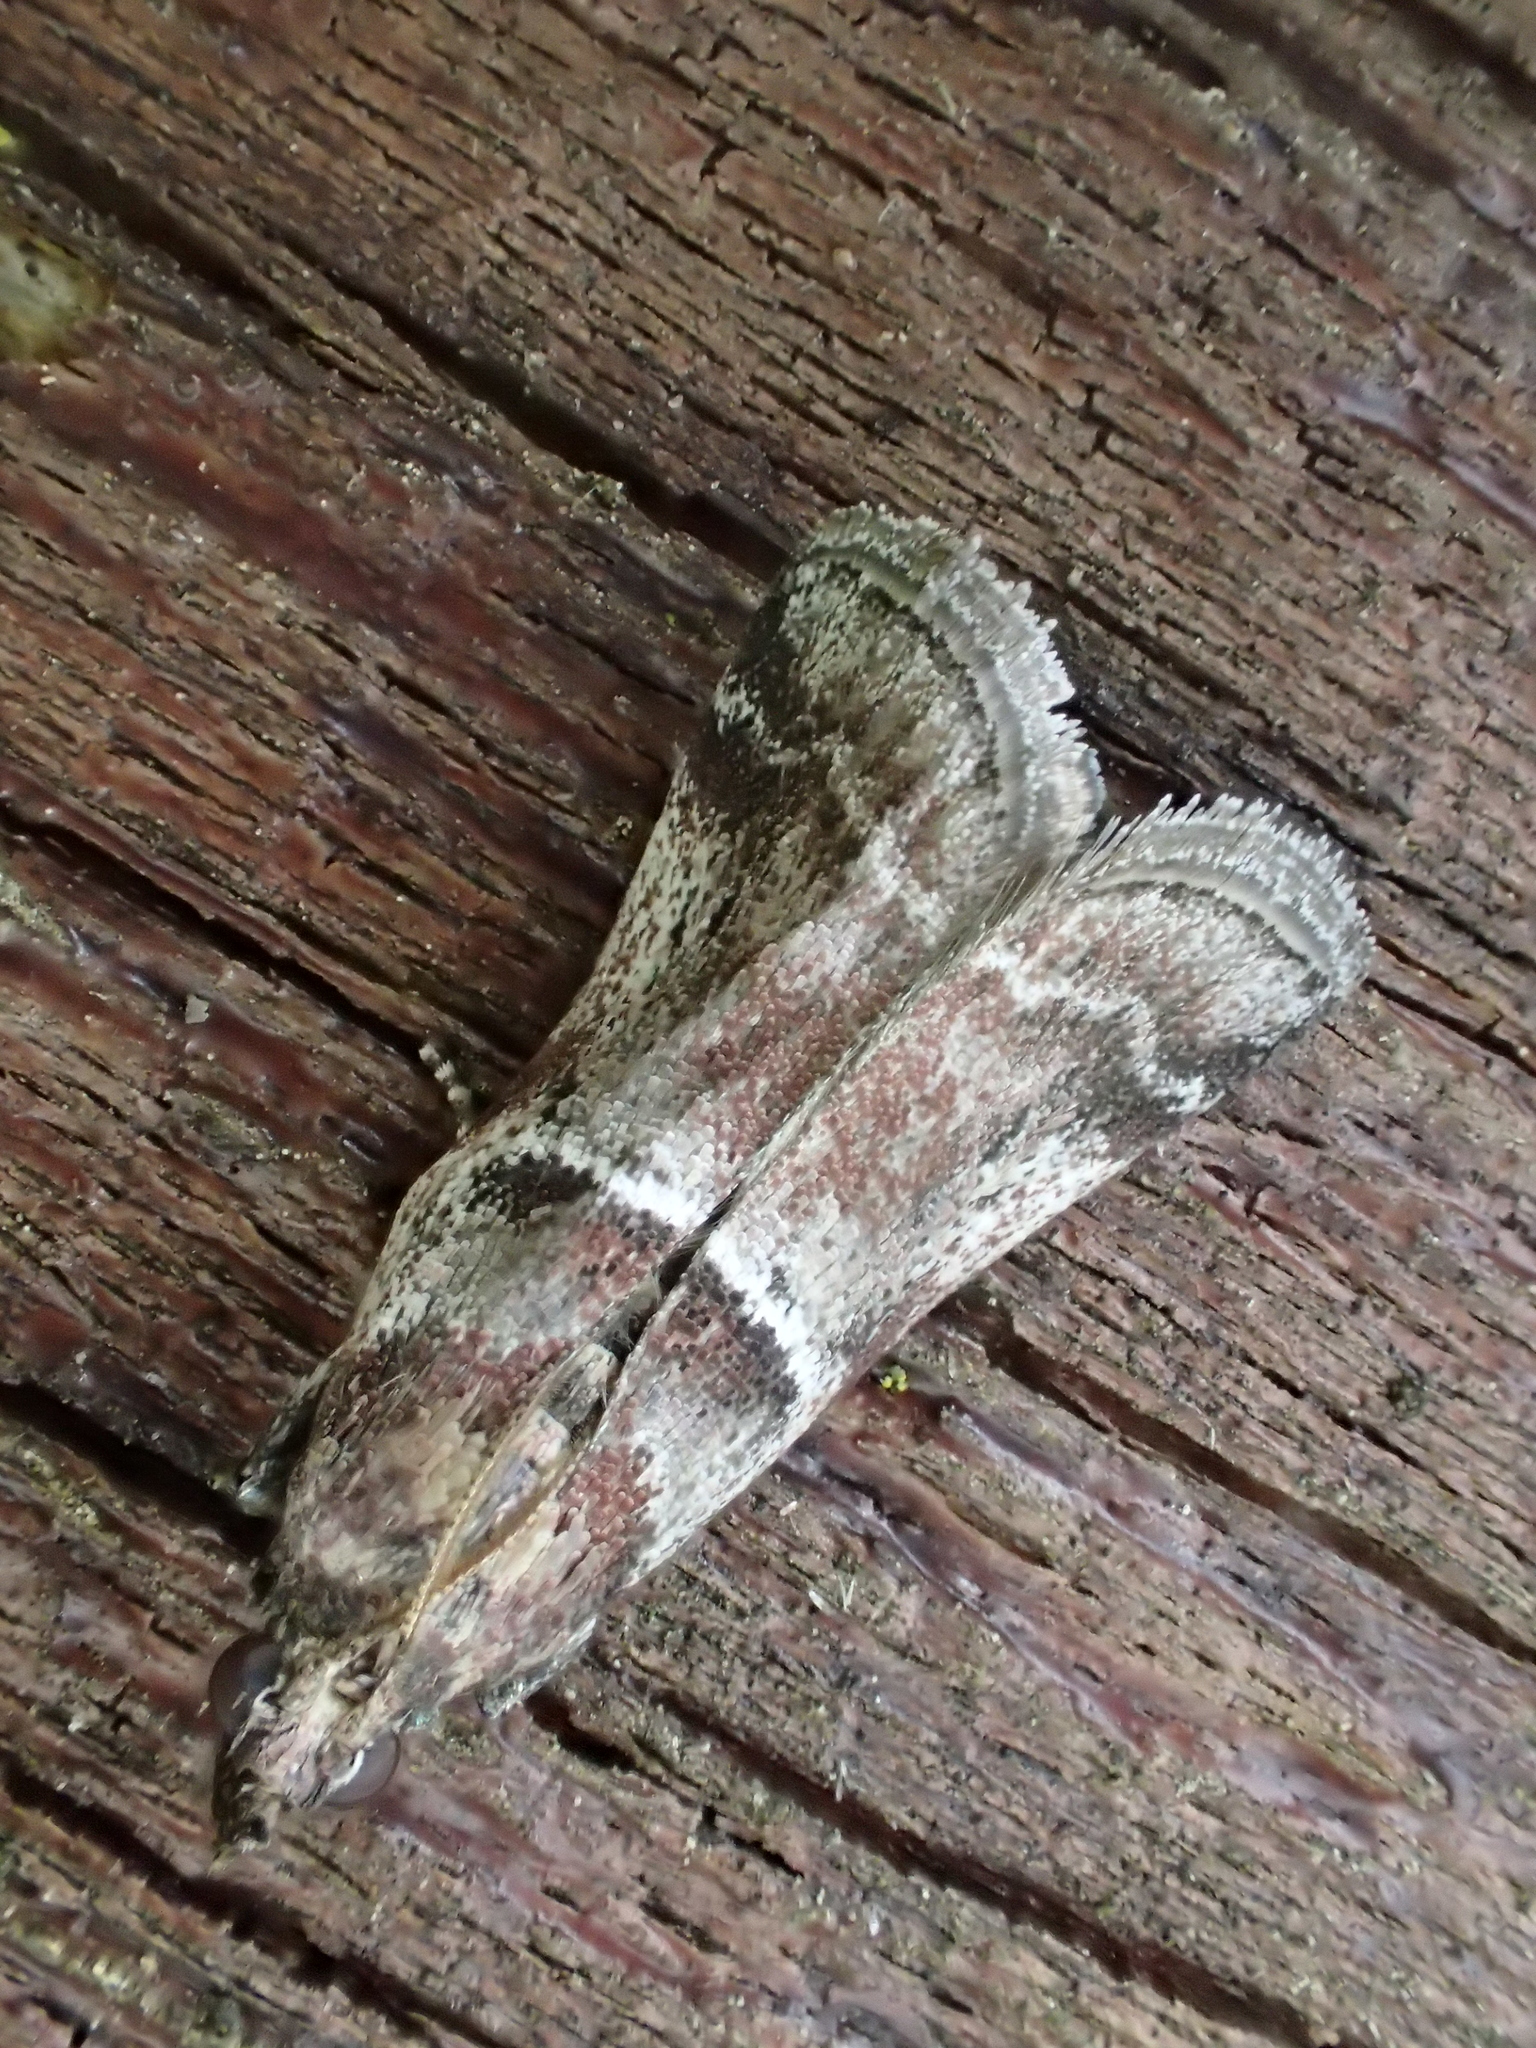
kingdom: Animalia
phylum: Arthropoda
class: Insecta
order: Lepidoptera
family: Pyralidae
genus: Alophia
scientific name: Alophia combustella
